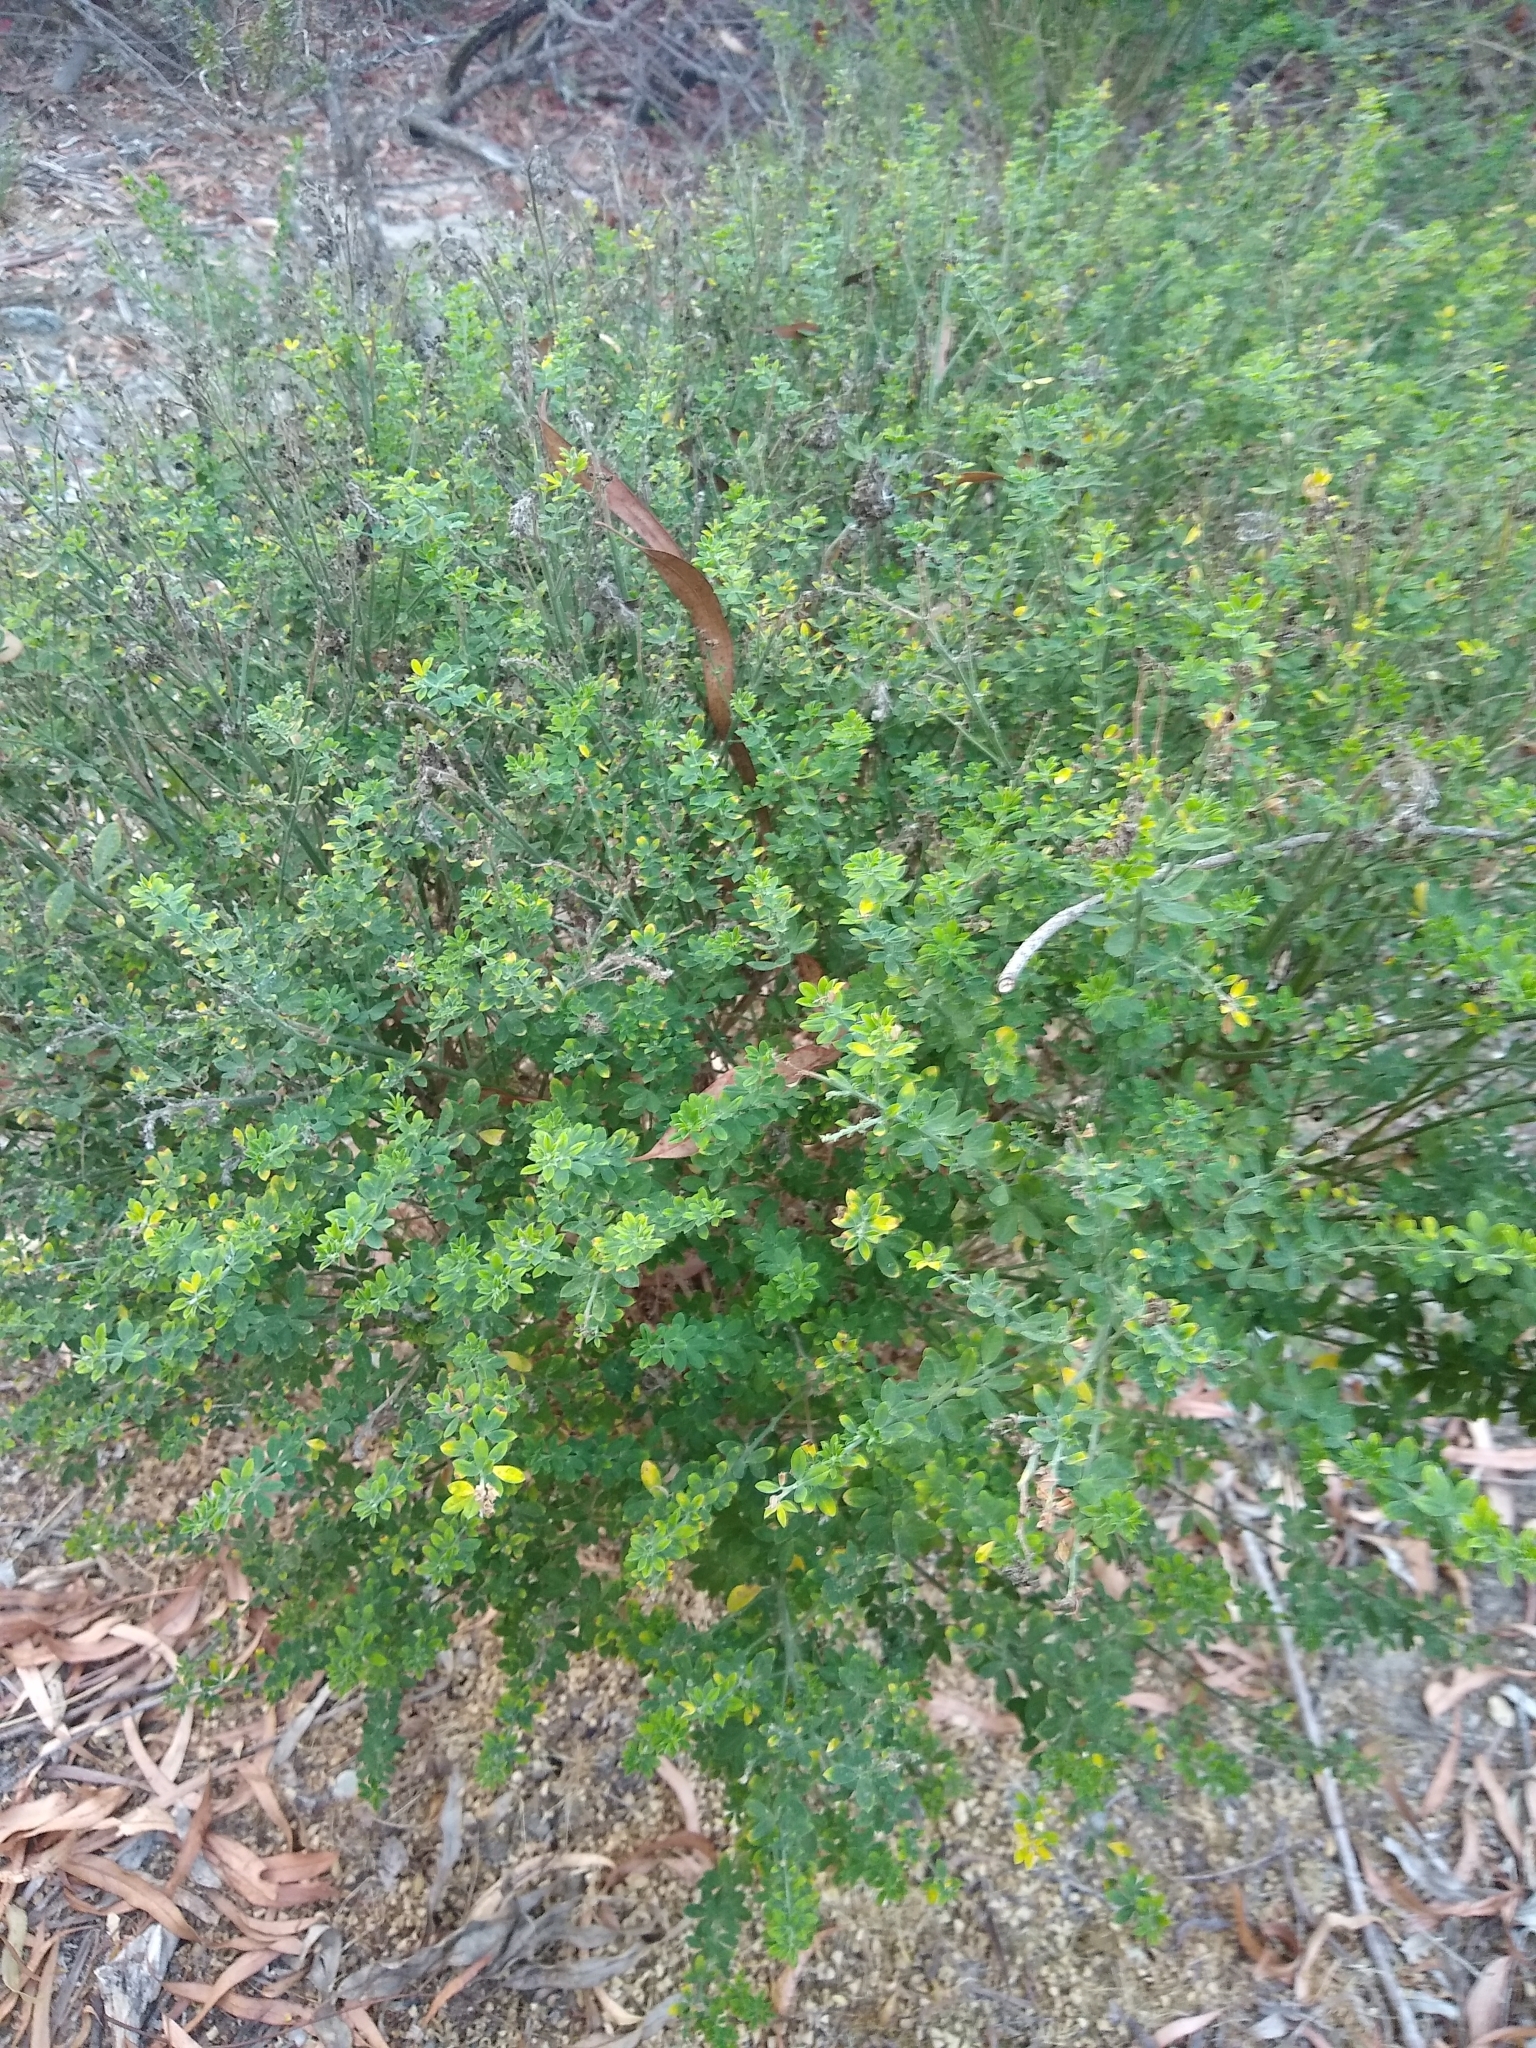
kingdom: Plantae
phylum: Tracheophyta
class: Magnoliopsida
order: Fabales
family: Fabaceae
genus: Genista
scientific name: Genista monspessulana
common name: Montpellier broom
